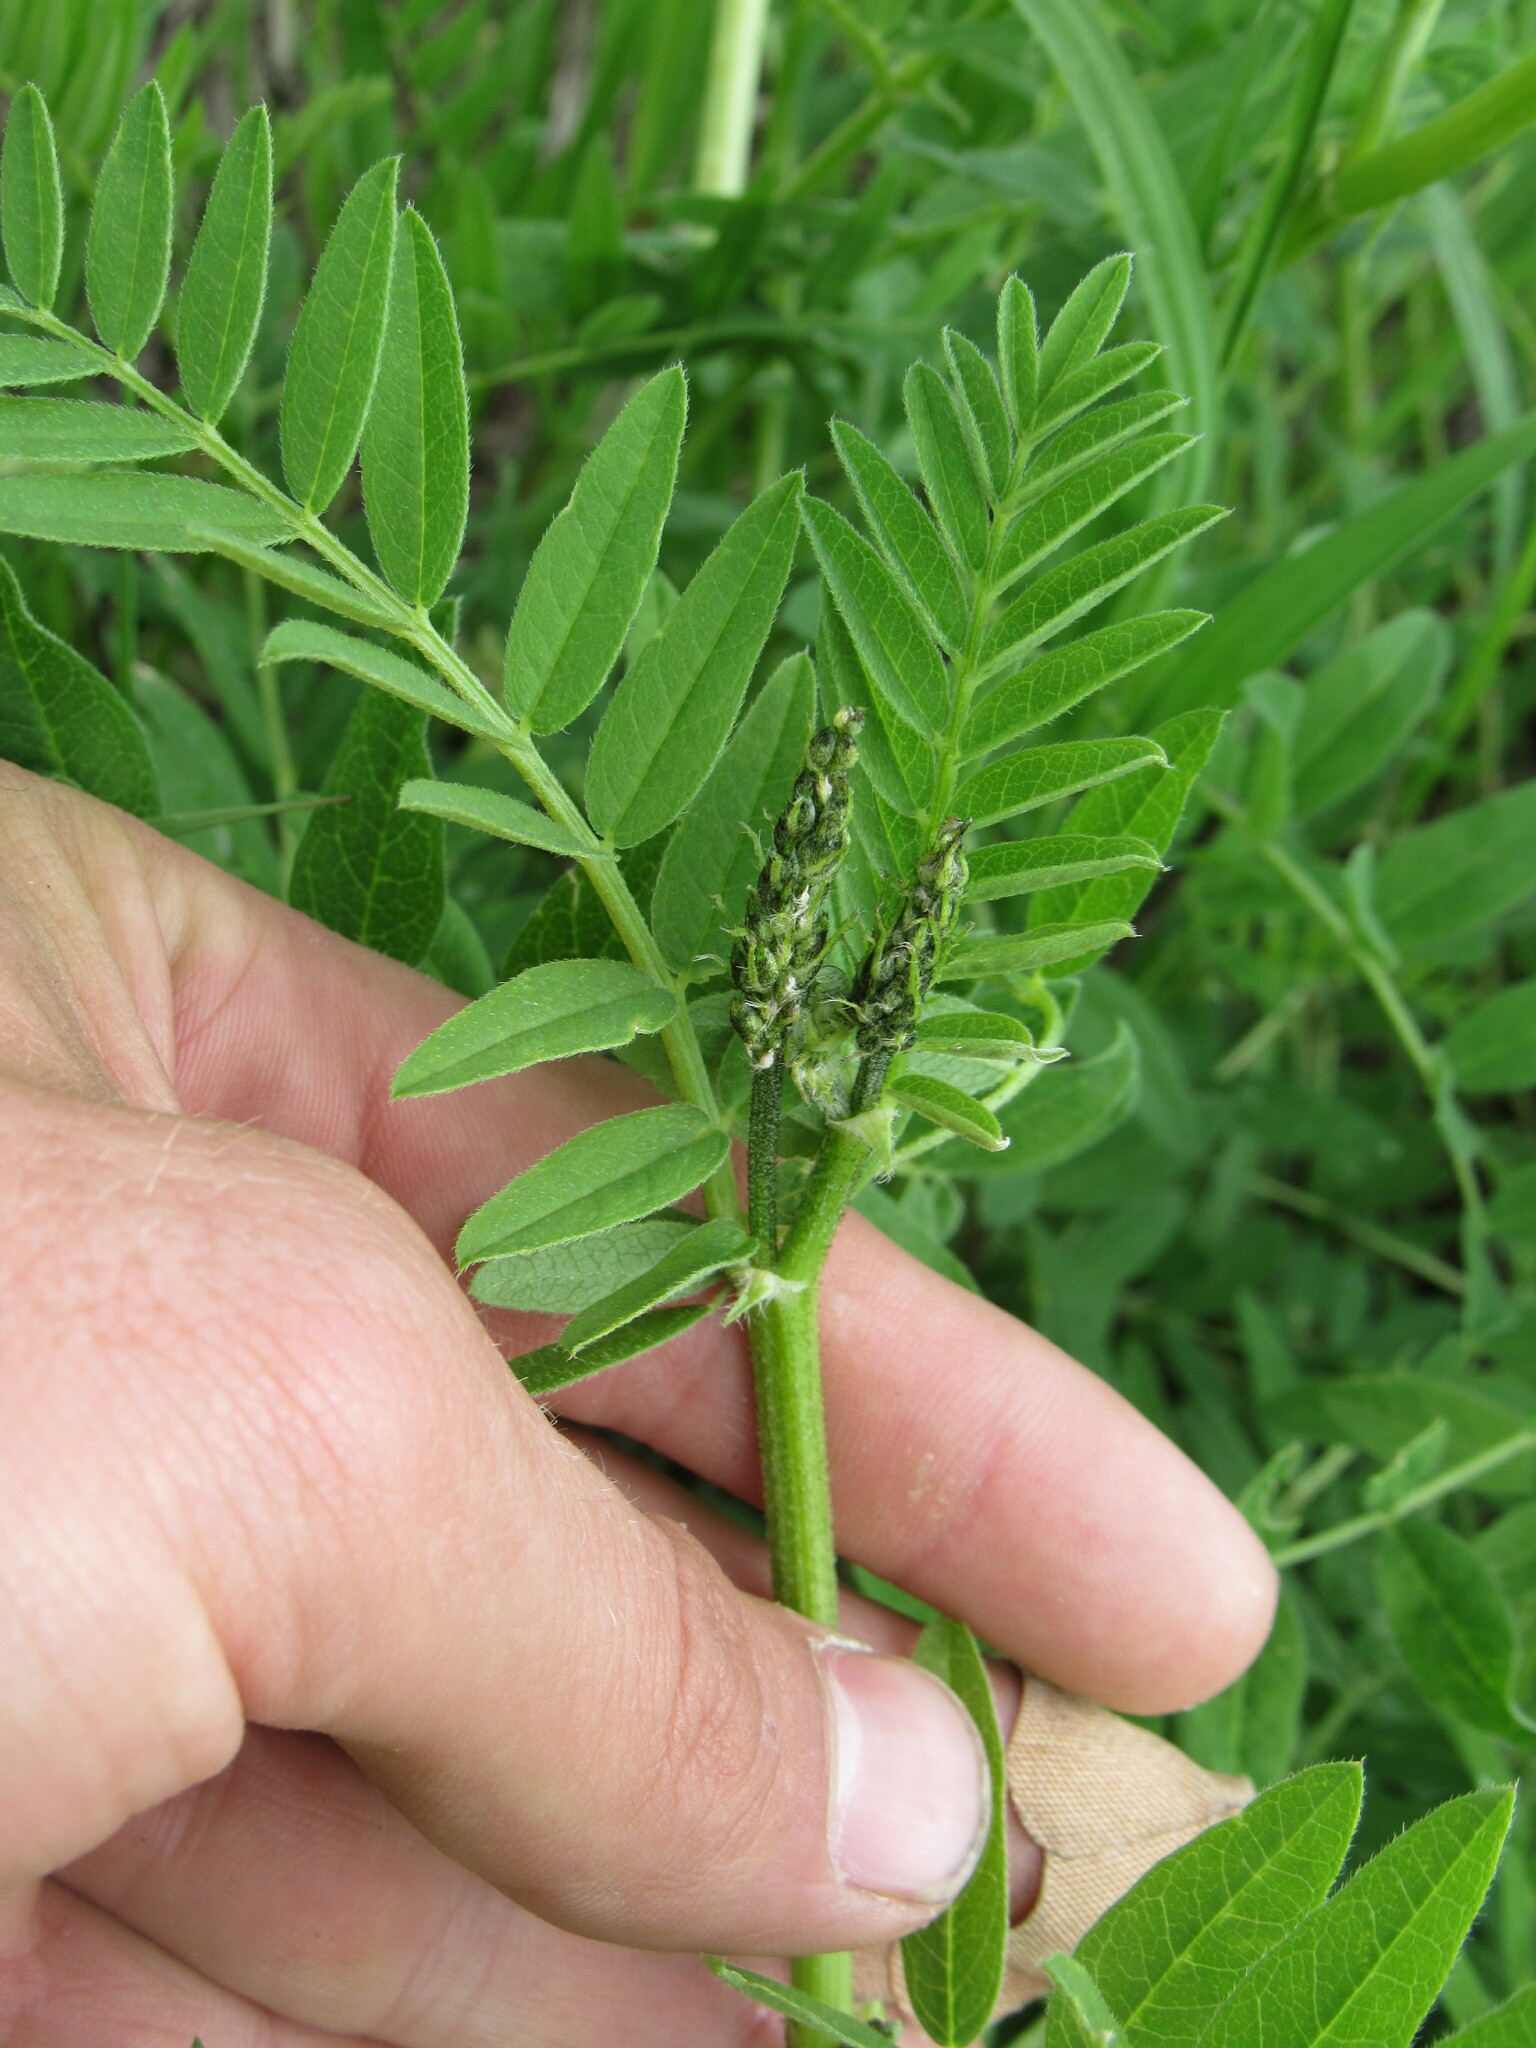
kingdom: Plantae
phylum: Tracheophyta
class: Magnoliopsida
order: Fabales
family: Fabaceae
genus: Astragalus
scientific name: Astragalus cicer
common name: Chick-pea milk-vetch
